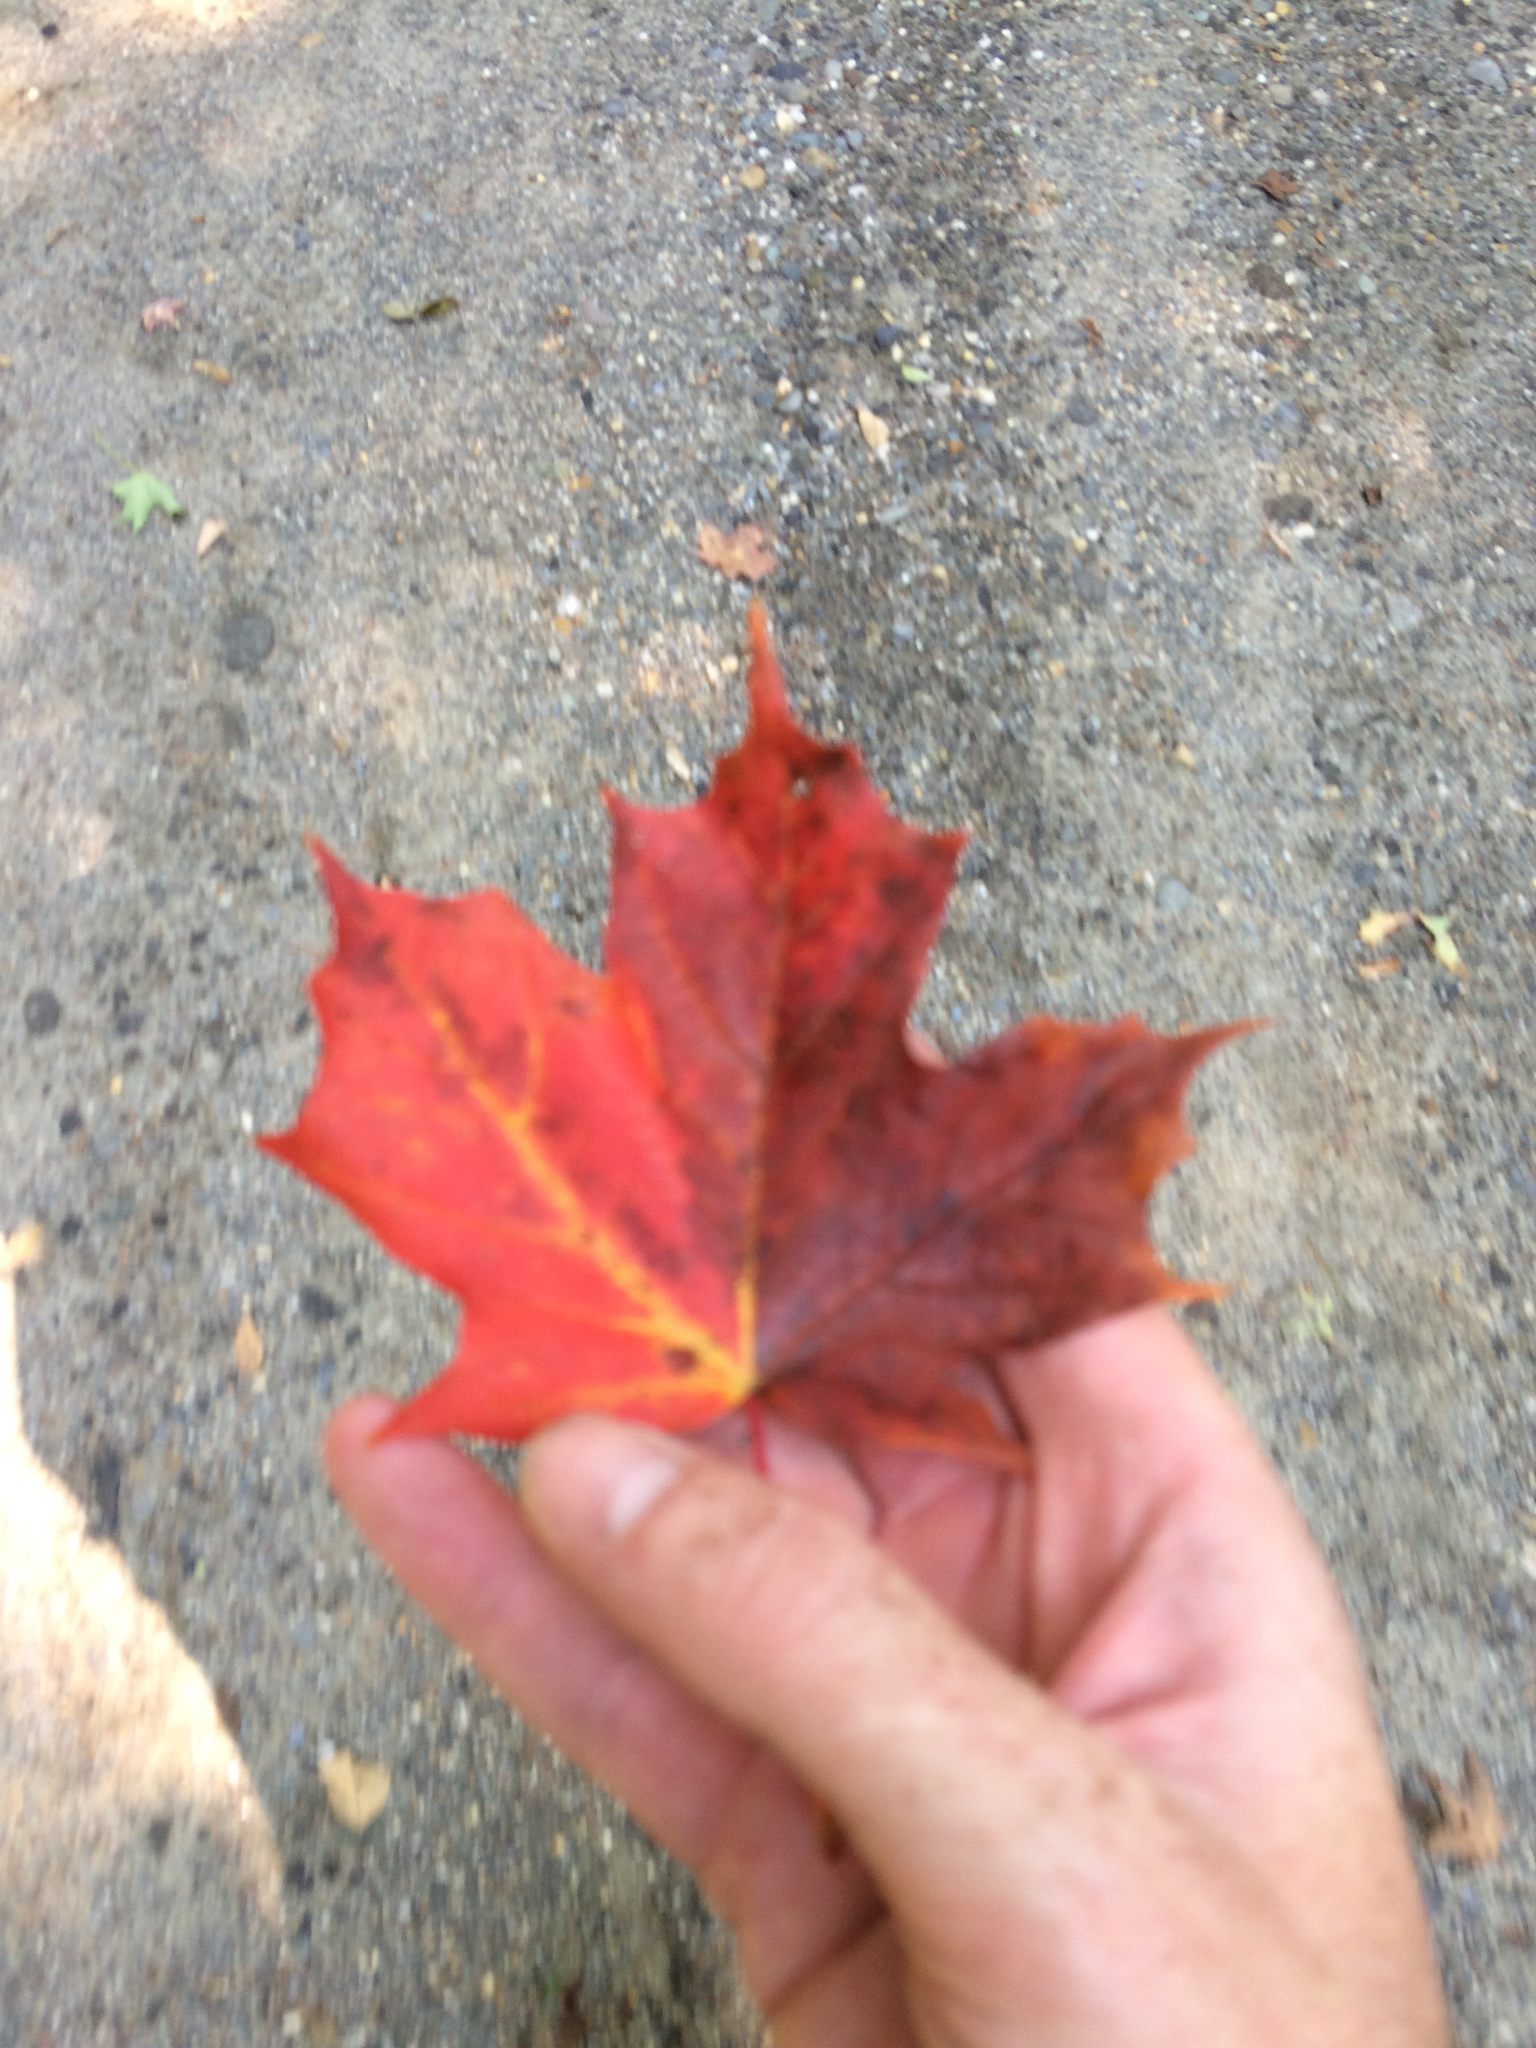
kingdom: Plantae
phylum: Tracheophyta
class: Magnoliopsida
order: Sapindales
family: Sapindaceae
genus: Acer
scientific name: Acer saccharum
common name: Sugar maple
